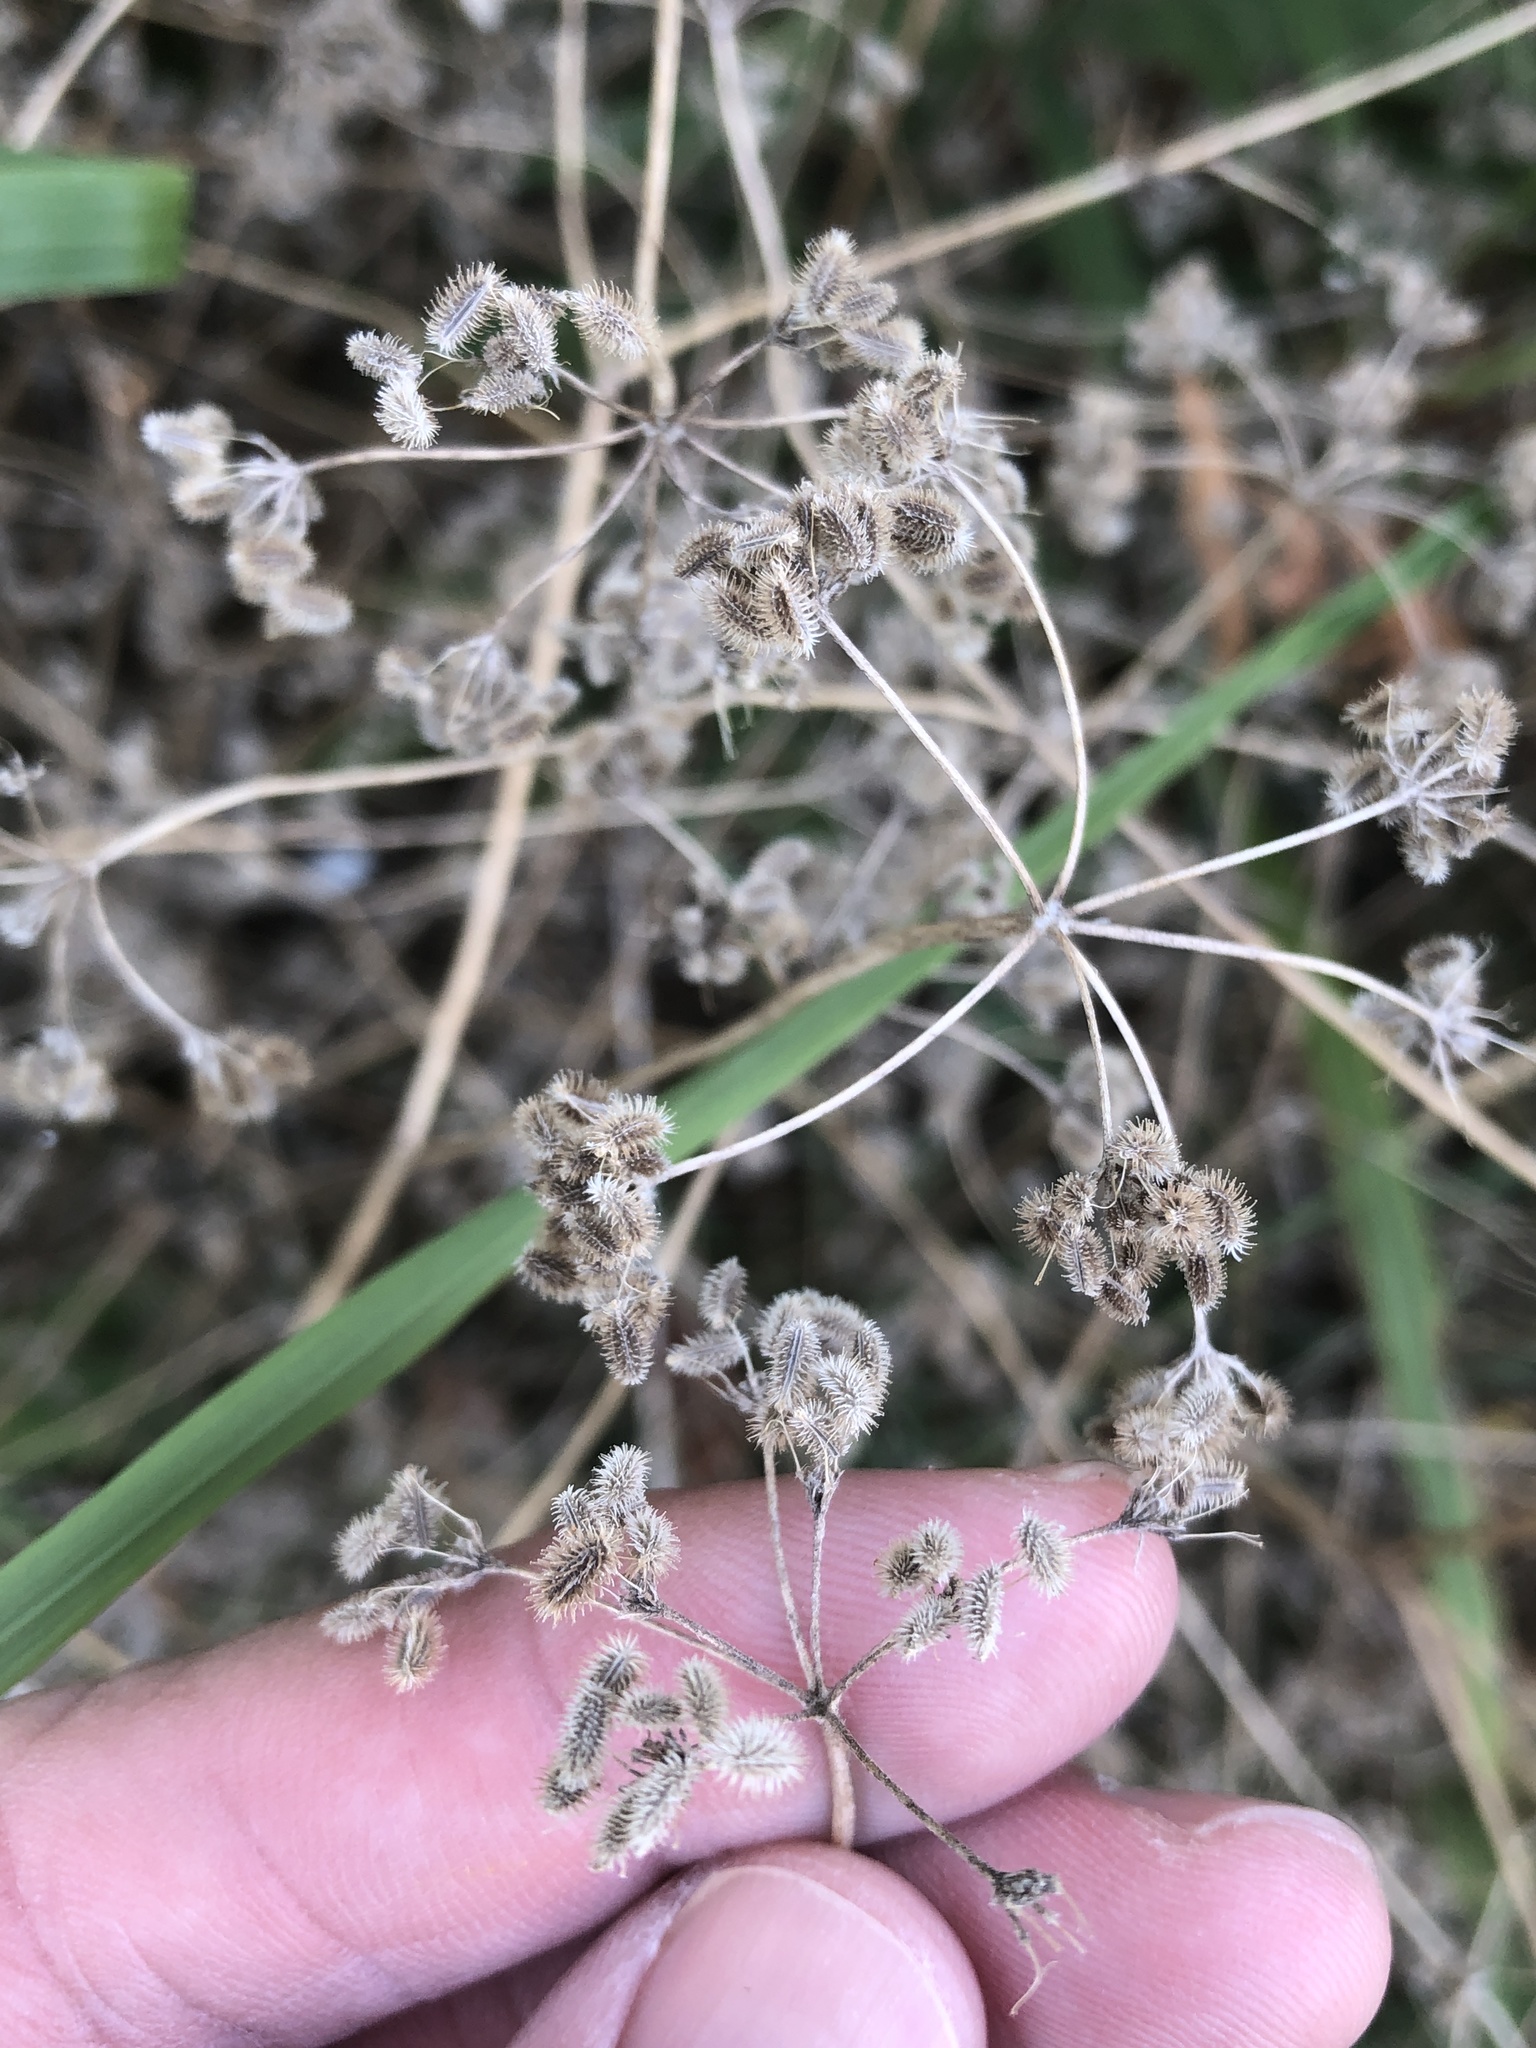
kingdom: Plantae
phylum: Tracheophyta
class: Magnoliopsida
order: Apiales
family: Apiaceae
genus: Torilis
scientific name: Torilis arvensis
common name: Spreading hedge-parsley
